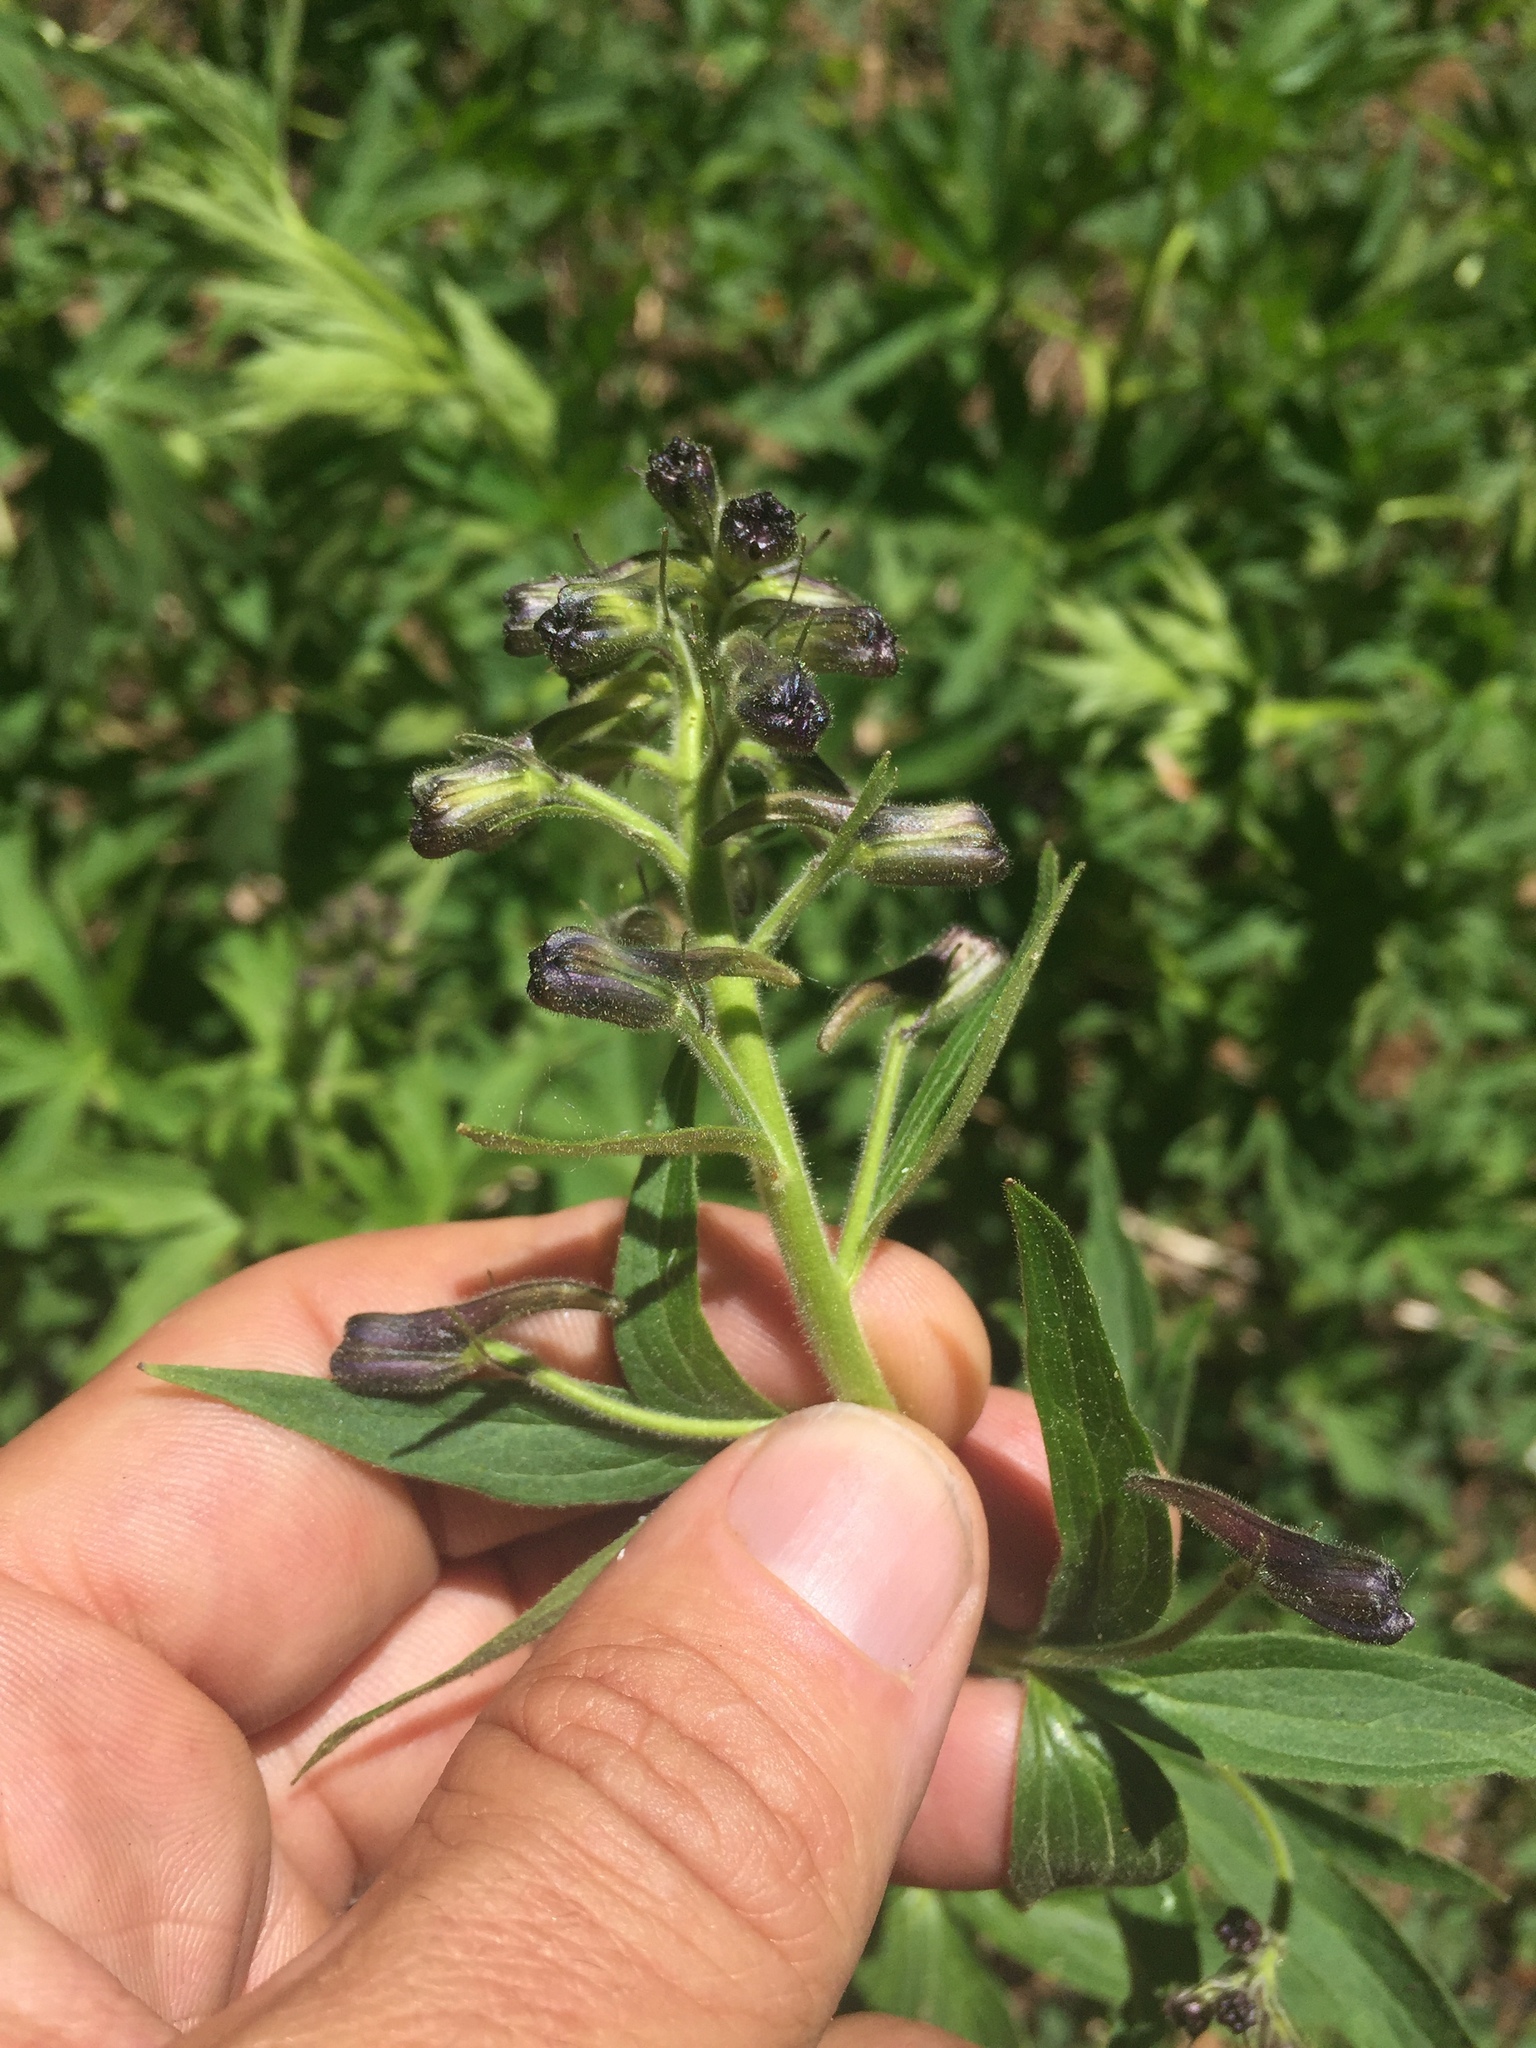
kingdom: Plantae
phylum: Tracheophyta
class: Magnoliopsida
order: Ranunculales
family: Ranunculaceae
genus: Delphinium
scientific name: Delphinium barbeyi
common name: Subalpine larkspur
